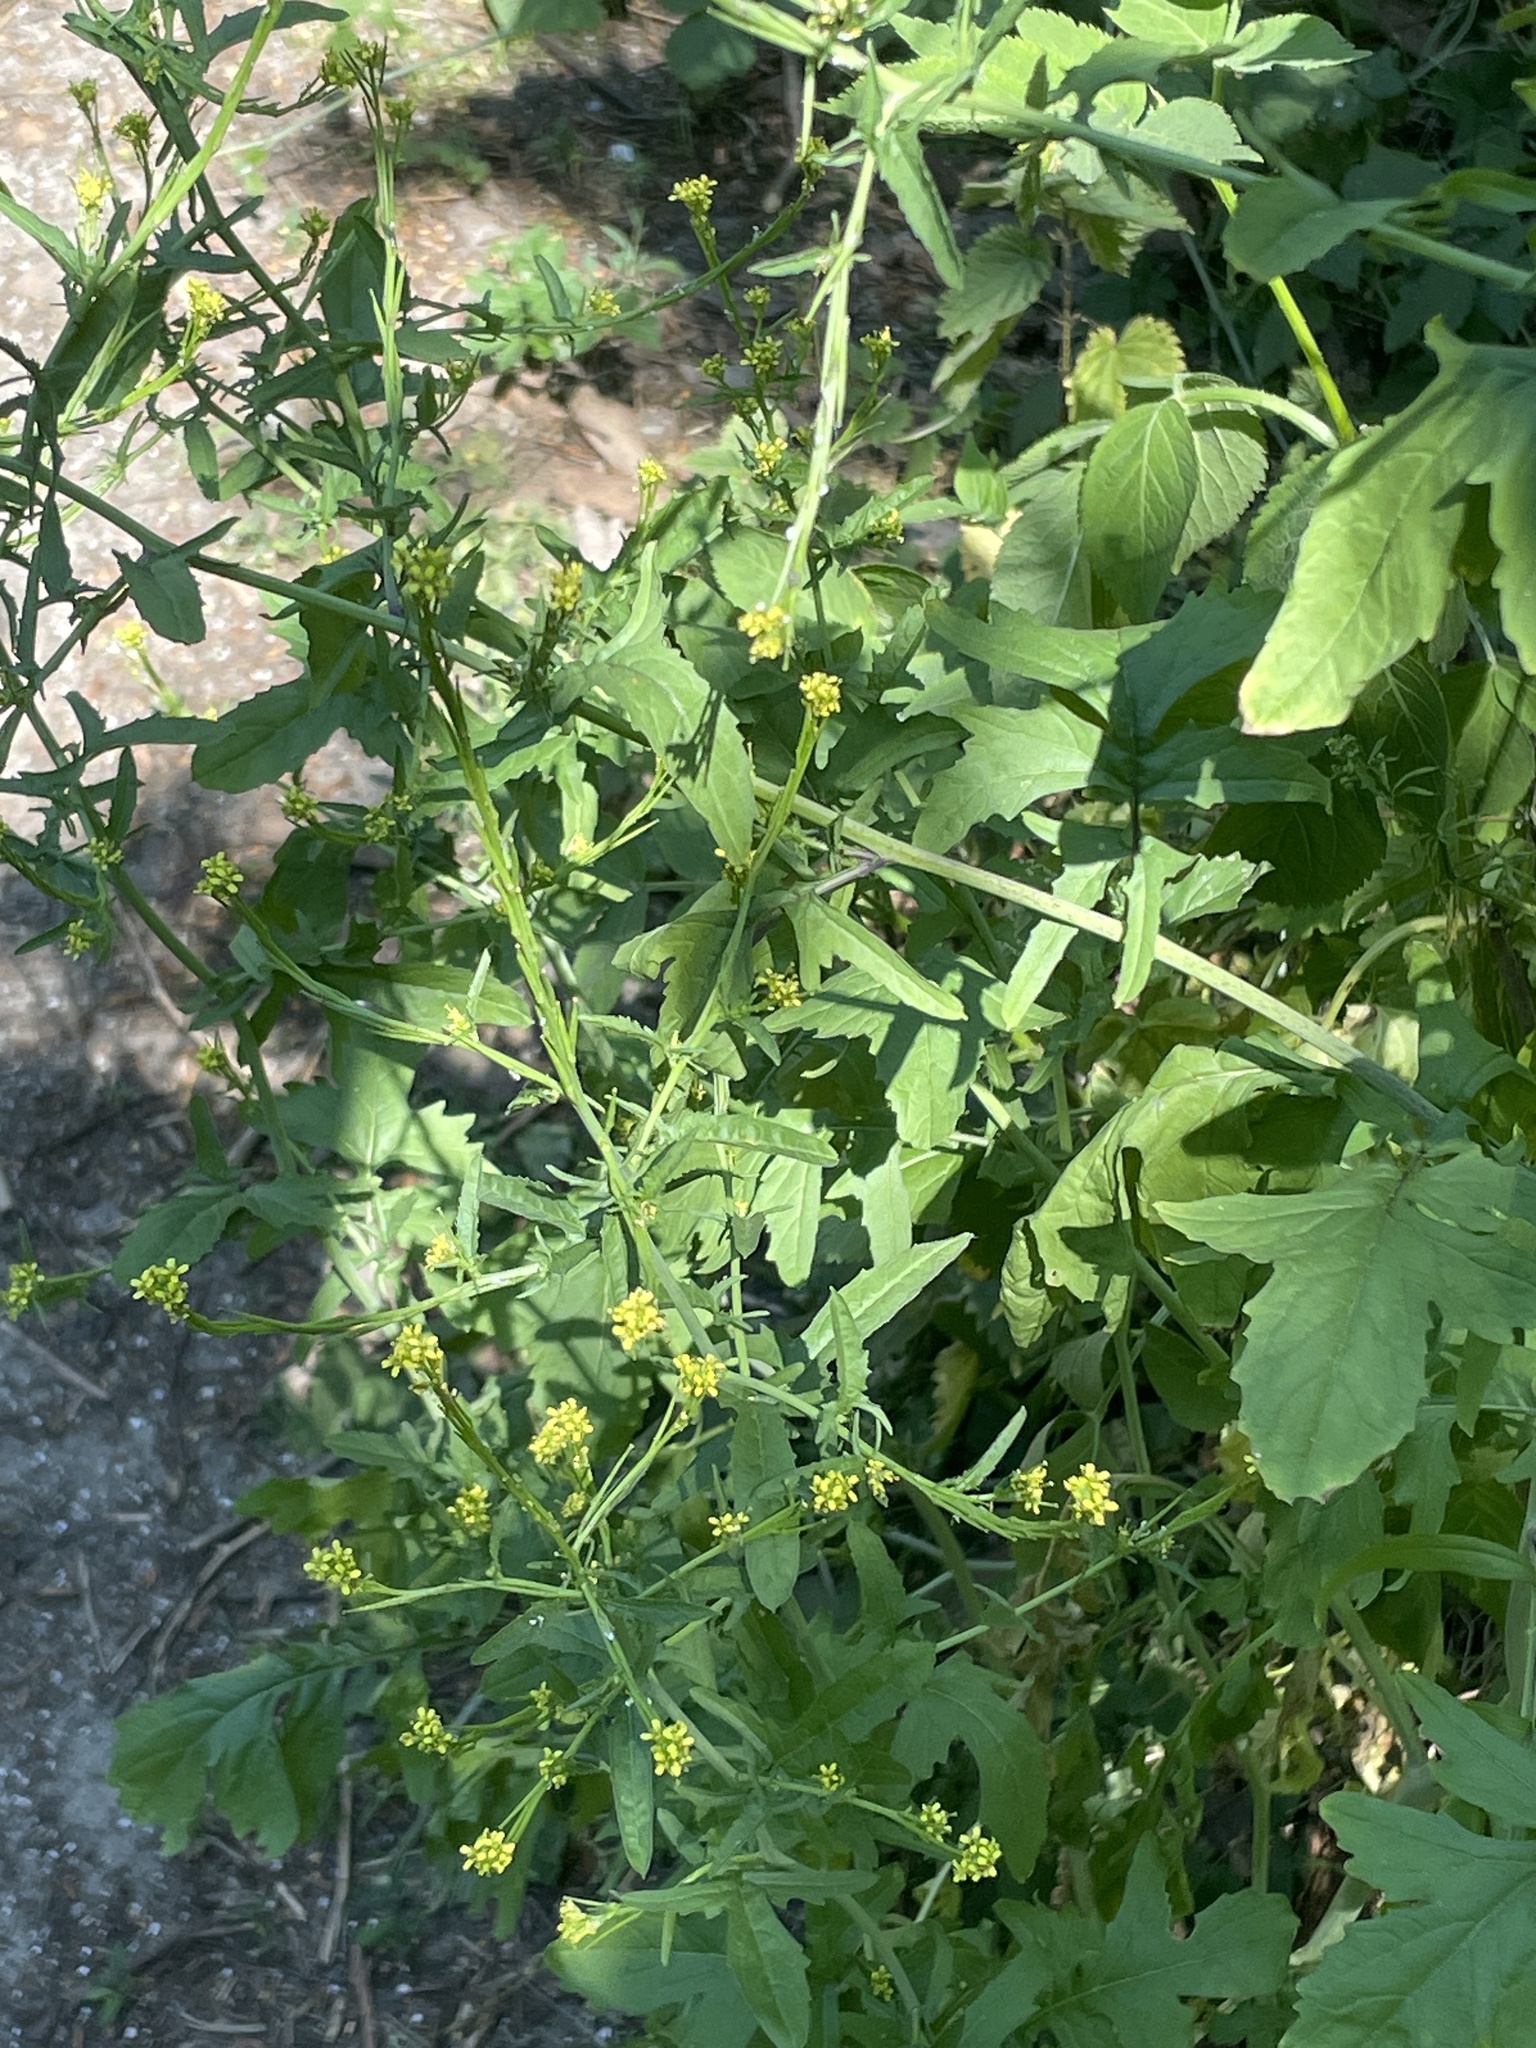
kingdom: Plantae
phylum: Tracheophyta
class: Magnoliopsida
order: Brassicales
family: Brassicaceae
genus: Sisymbrium
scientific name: Sisymbrium officinale
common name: Hedge mustard
